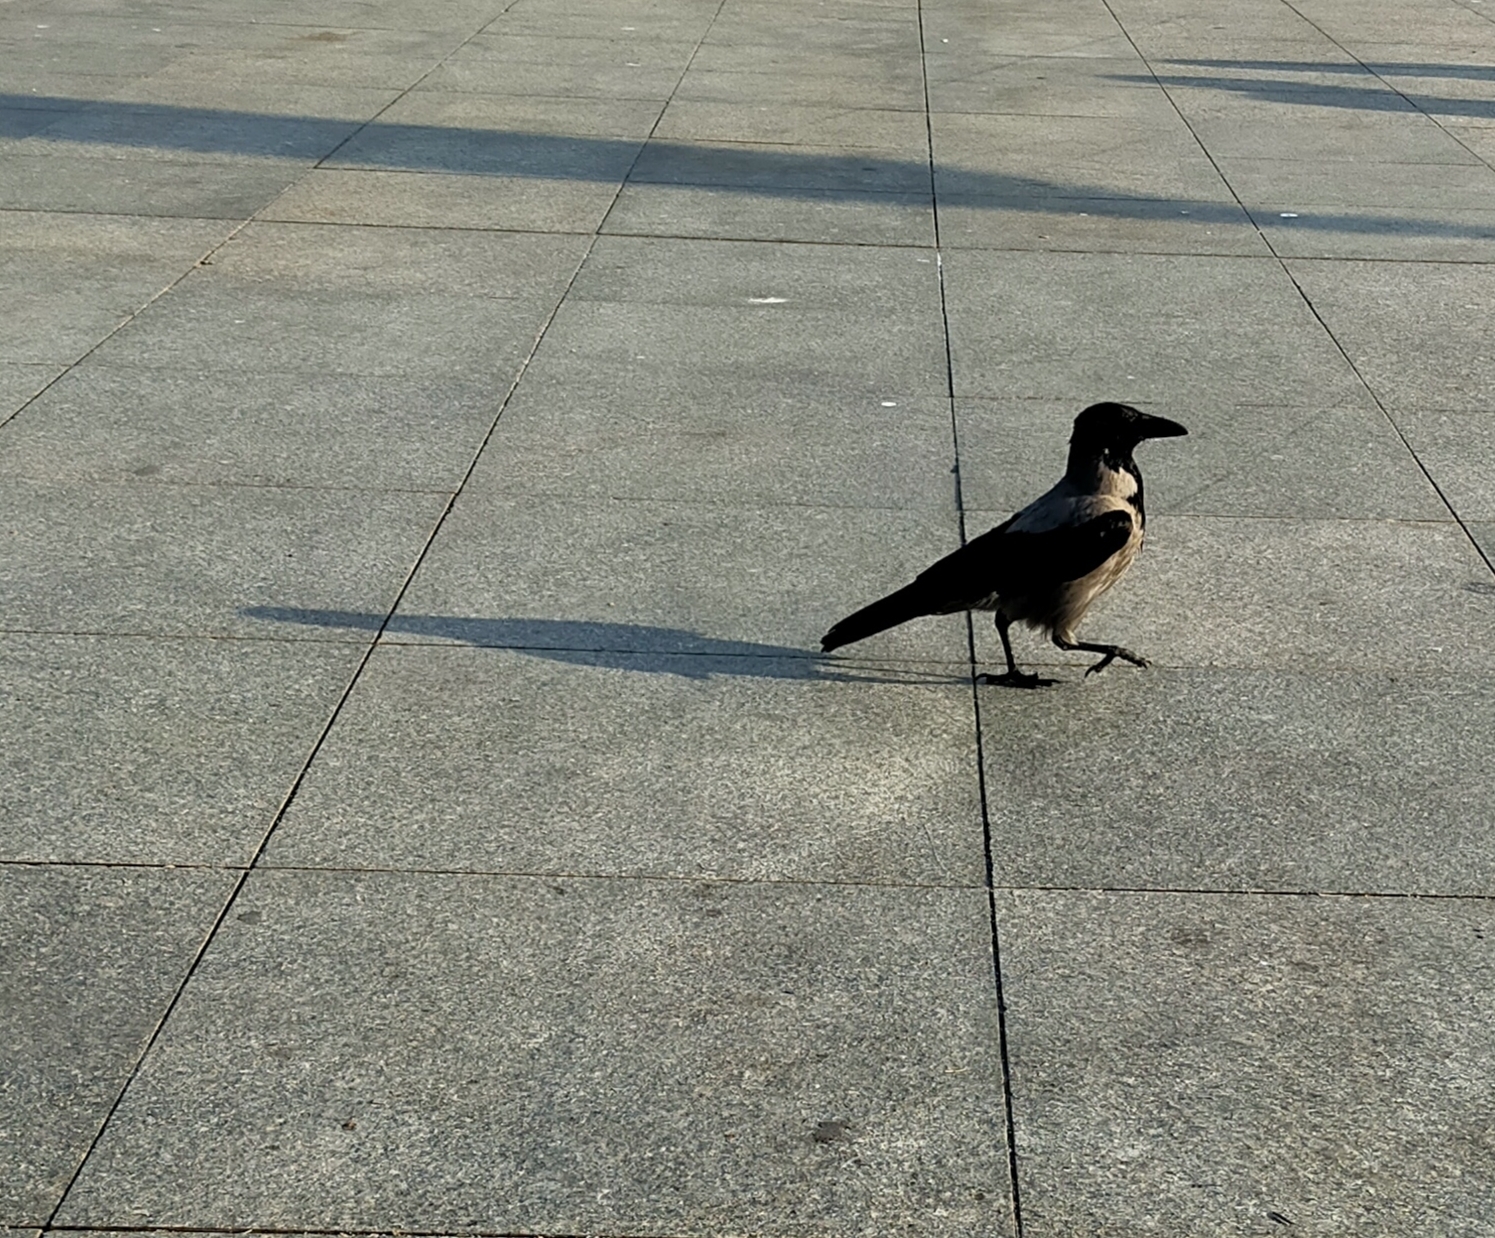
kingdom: Animalia
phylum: Chordata
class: Aves
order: Passeriformes
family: Corvidae
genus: Corvus
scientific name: Corvus cornix
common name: Hooded crow
